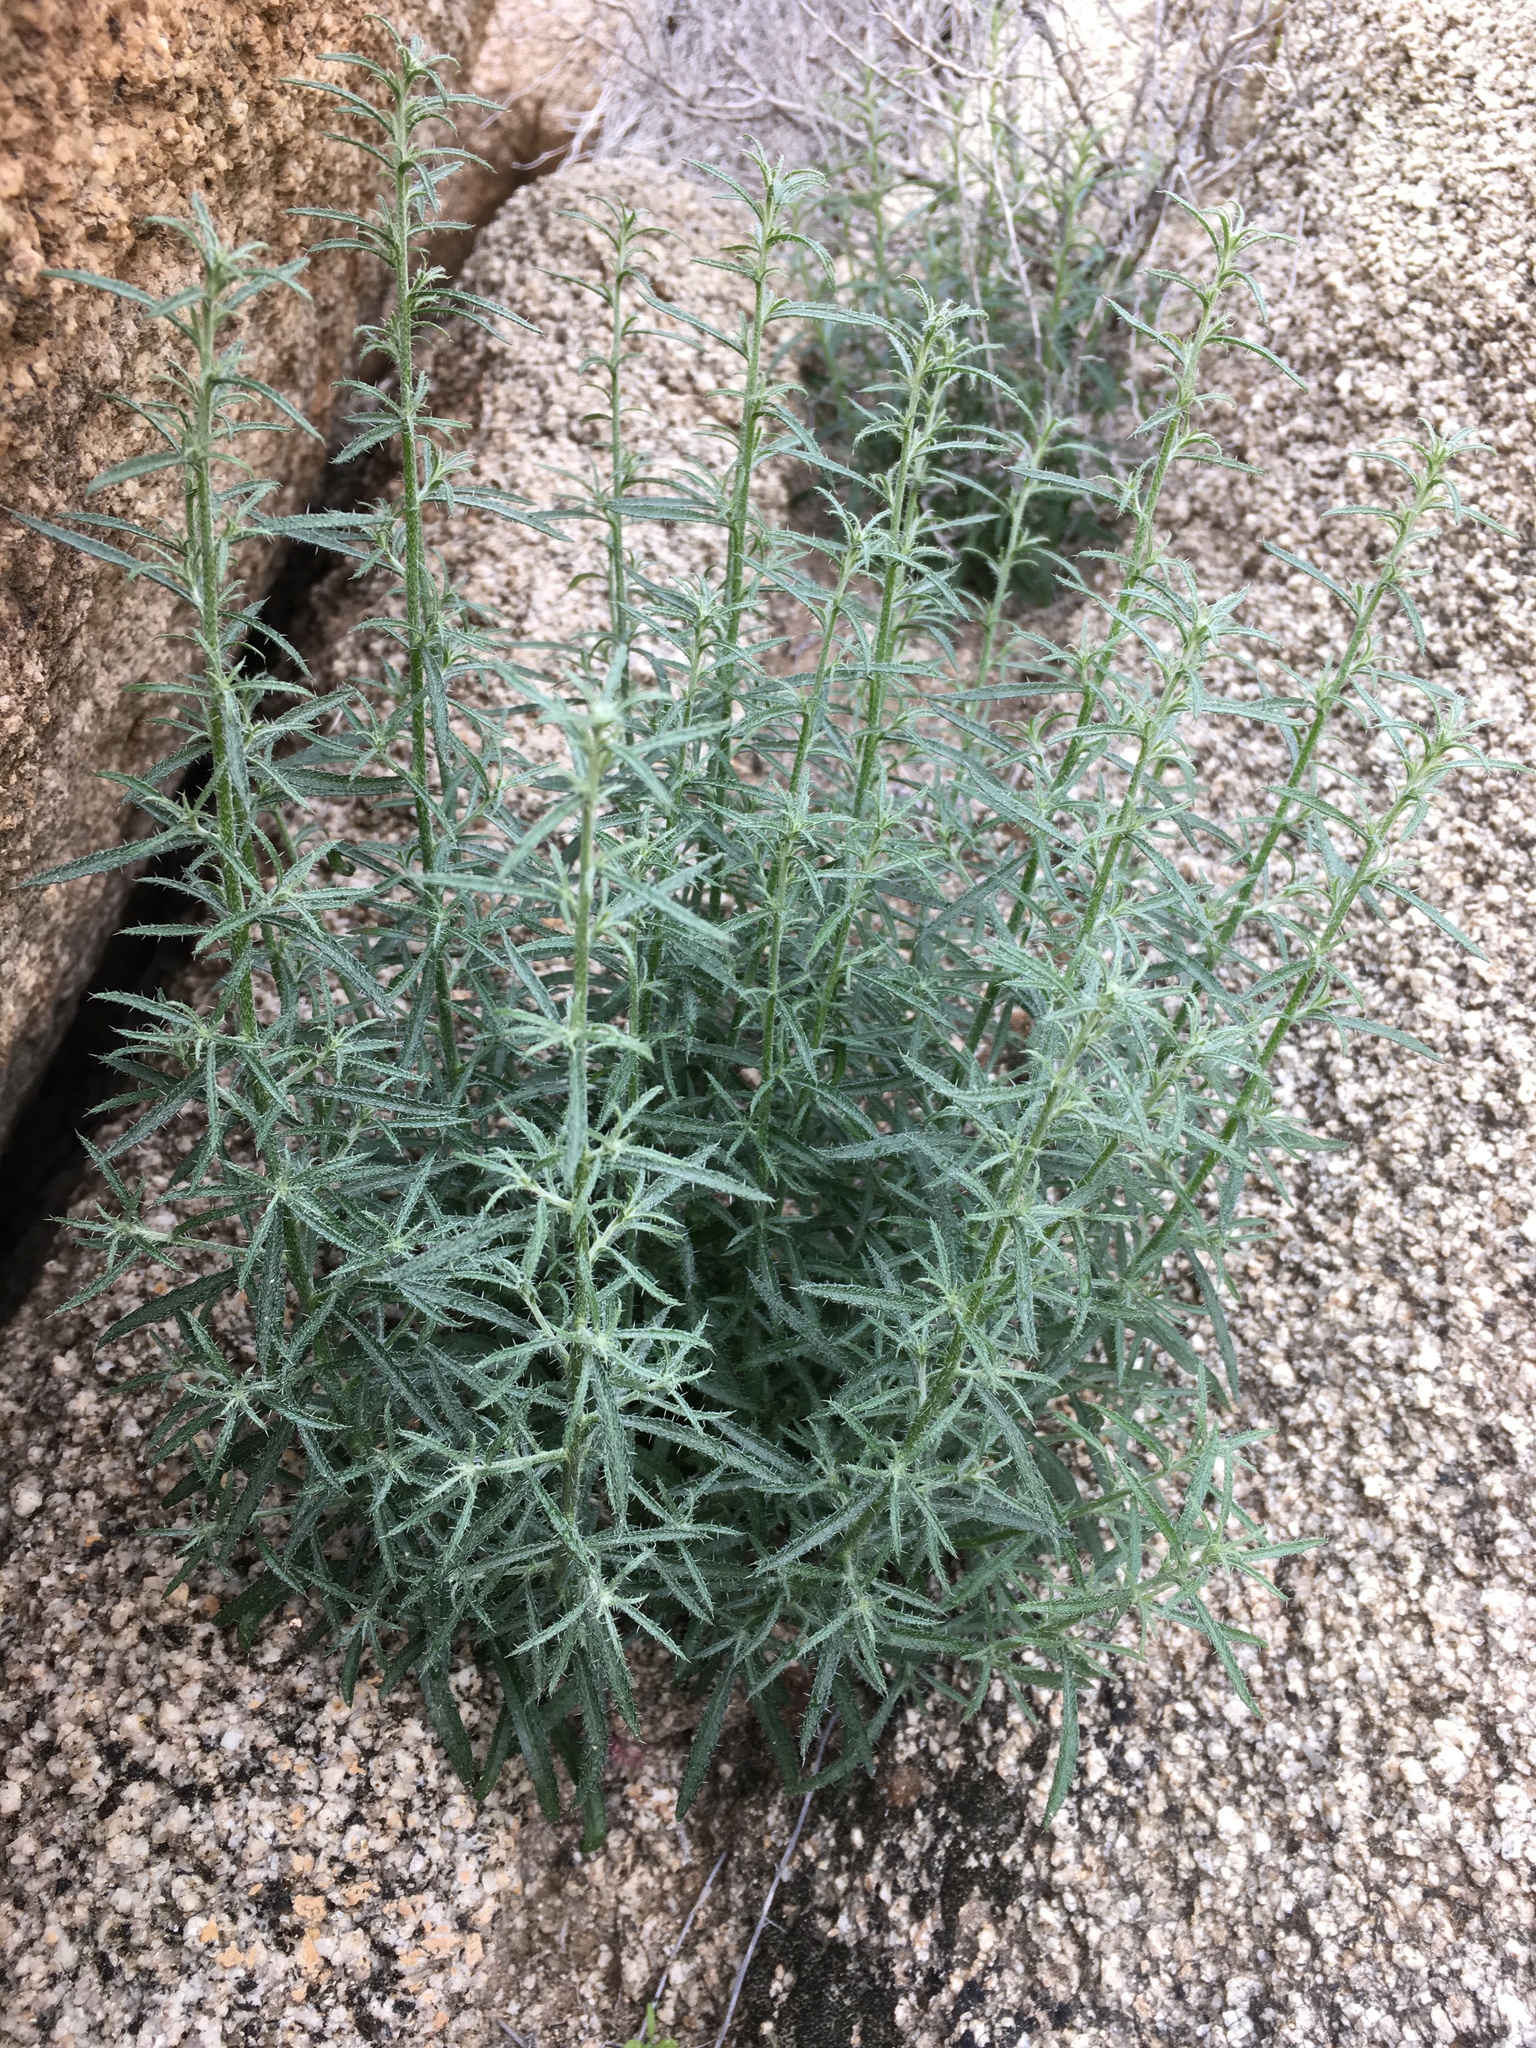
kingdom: Plantae
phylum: Tracheophyta
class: Magnoliopsida
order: Boraginales
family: Boraginaceae
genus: Johnstonella
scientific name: Johnstonella racemosa
